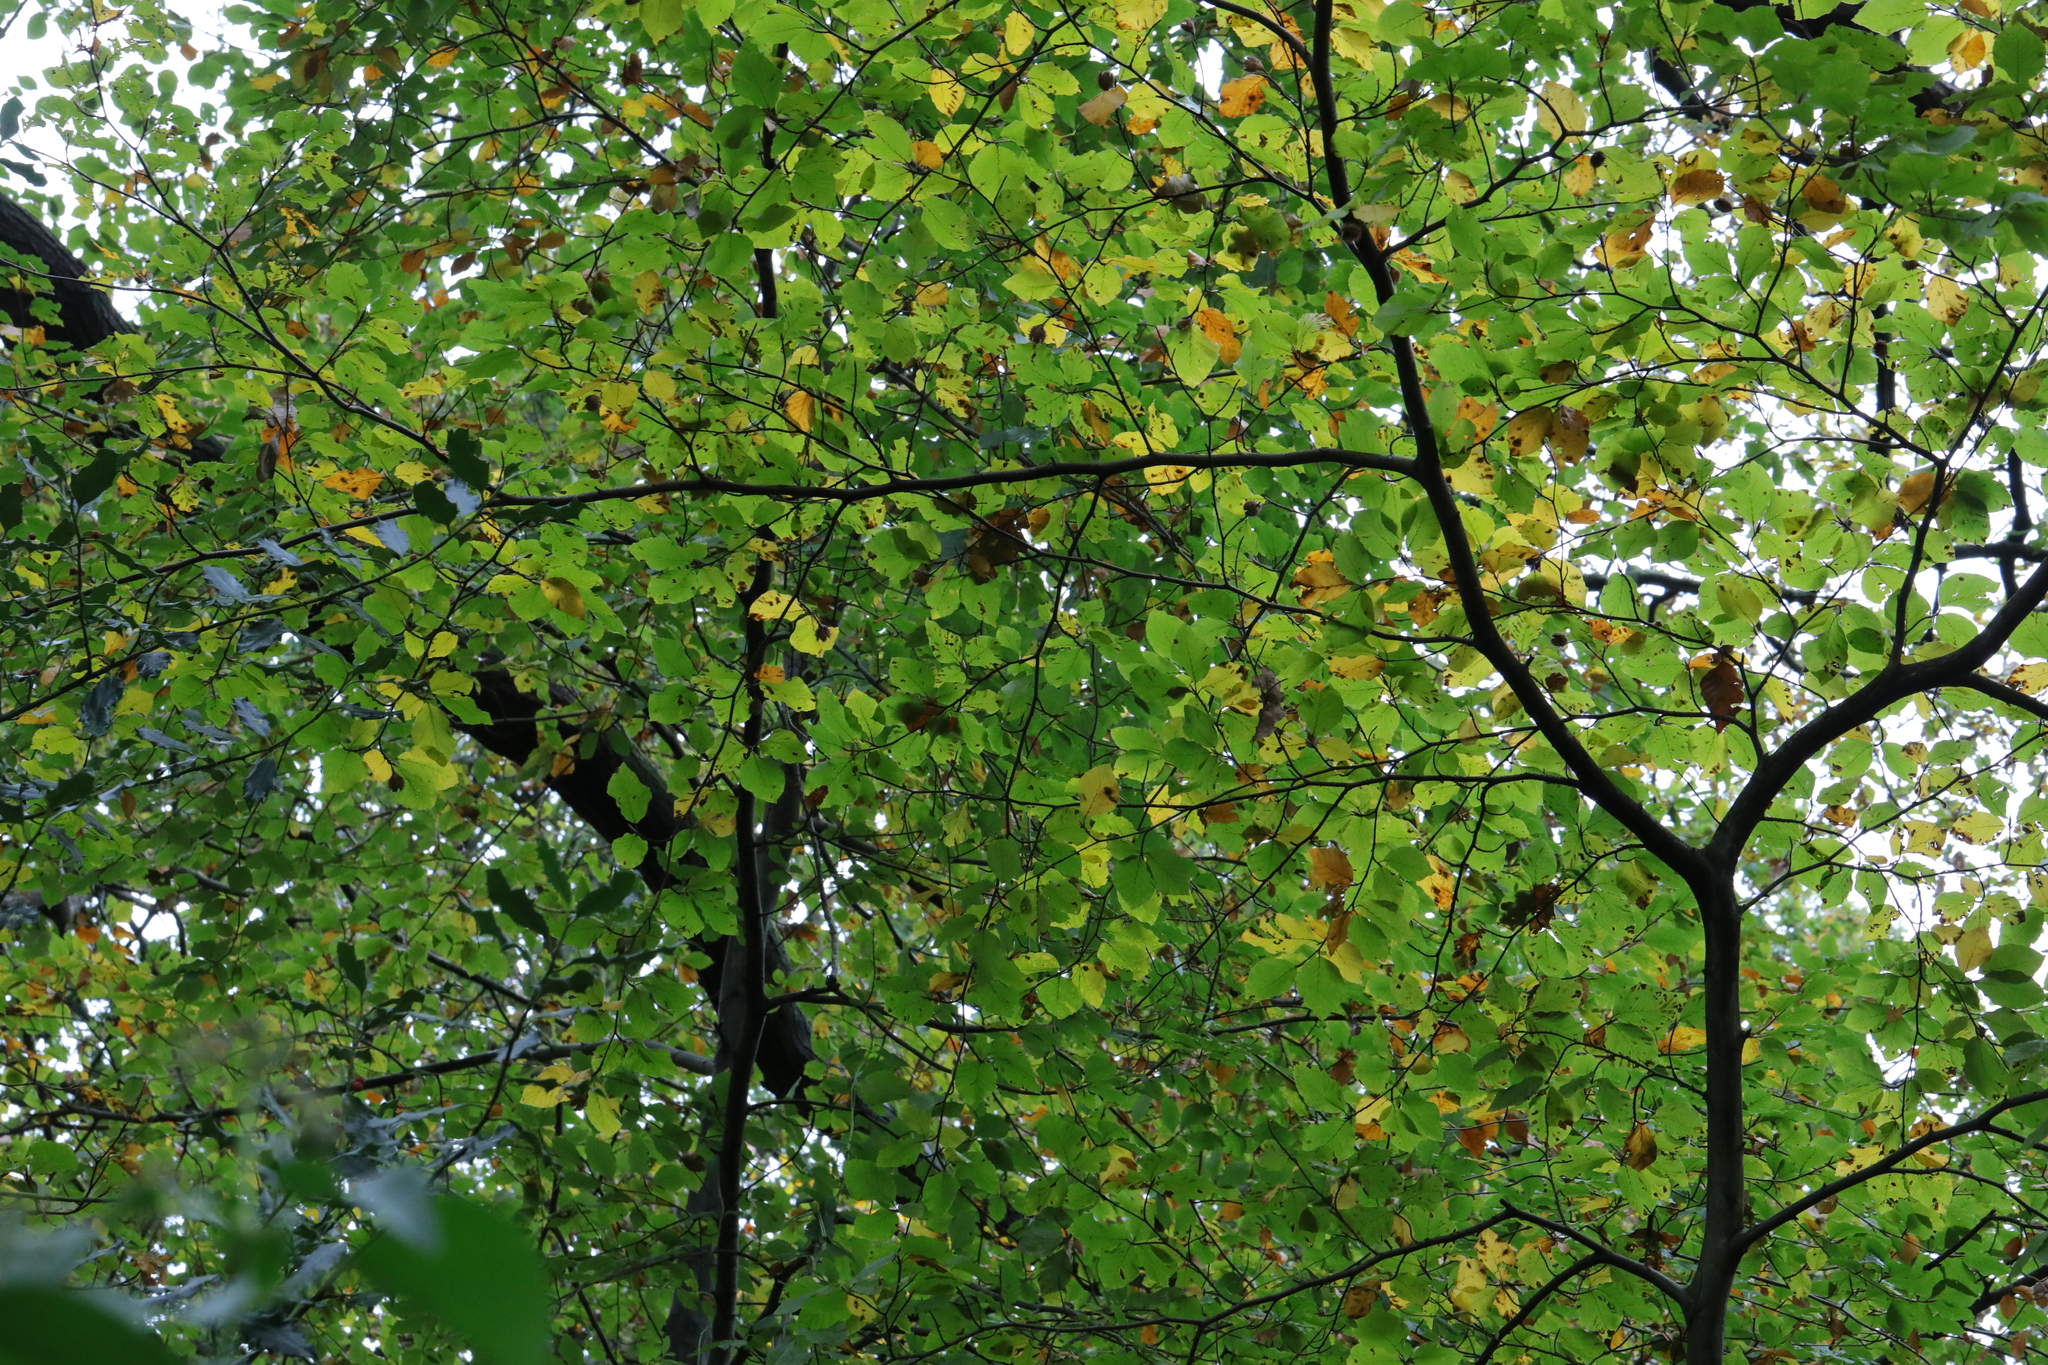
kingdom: Plantae
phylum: Tracheophyta
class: Magnoliopsida
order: Fagales
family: Fagaceae
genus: Fagus
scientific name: Fagus sylvatica
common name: Beech
